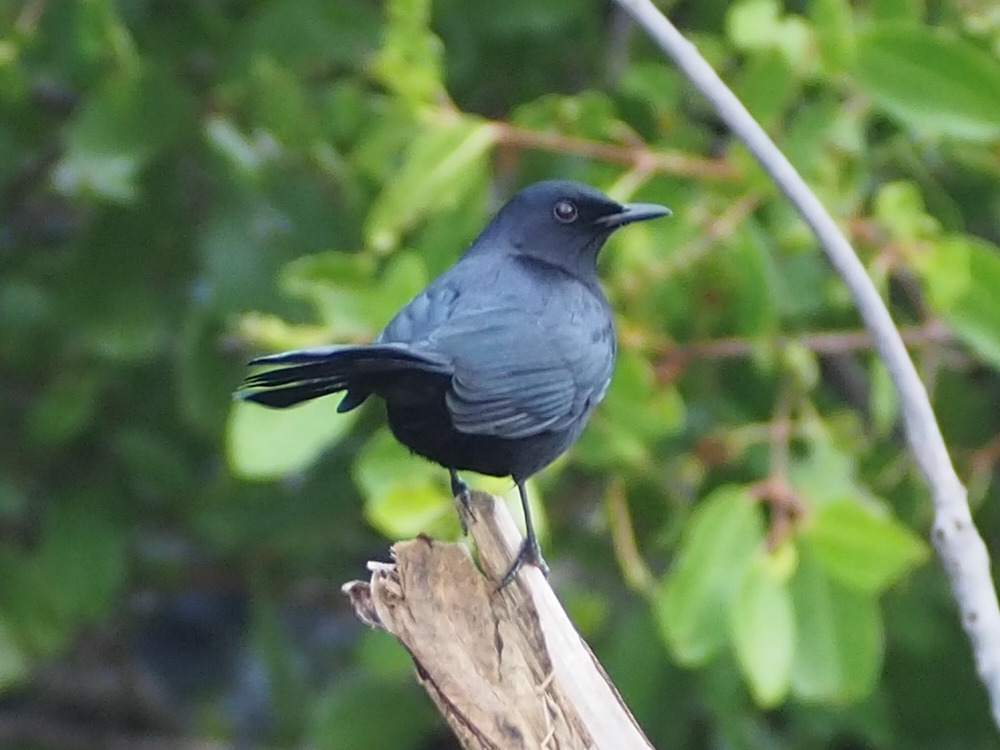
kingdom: Animalia
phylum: Chordata
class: Aves
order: Passeriformes
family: Mimidae
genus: Melanoptila
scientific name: Melanoptila glabrirostris
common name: Black catbird
